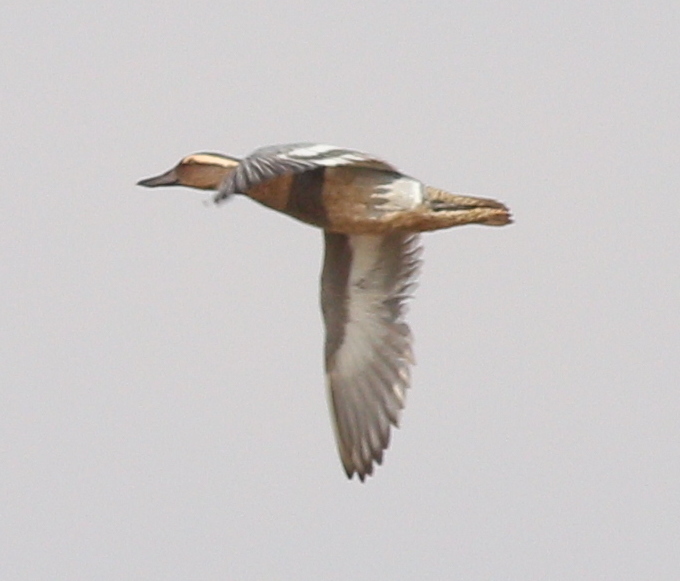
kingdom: Animalia
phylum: Chordata
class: Aves
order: Anseriformes
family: Anatidae
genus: Spatula
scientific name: Spatula querquedula
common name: Garganey
